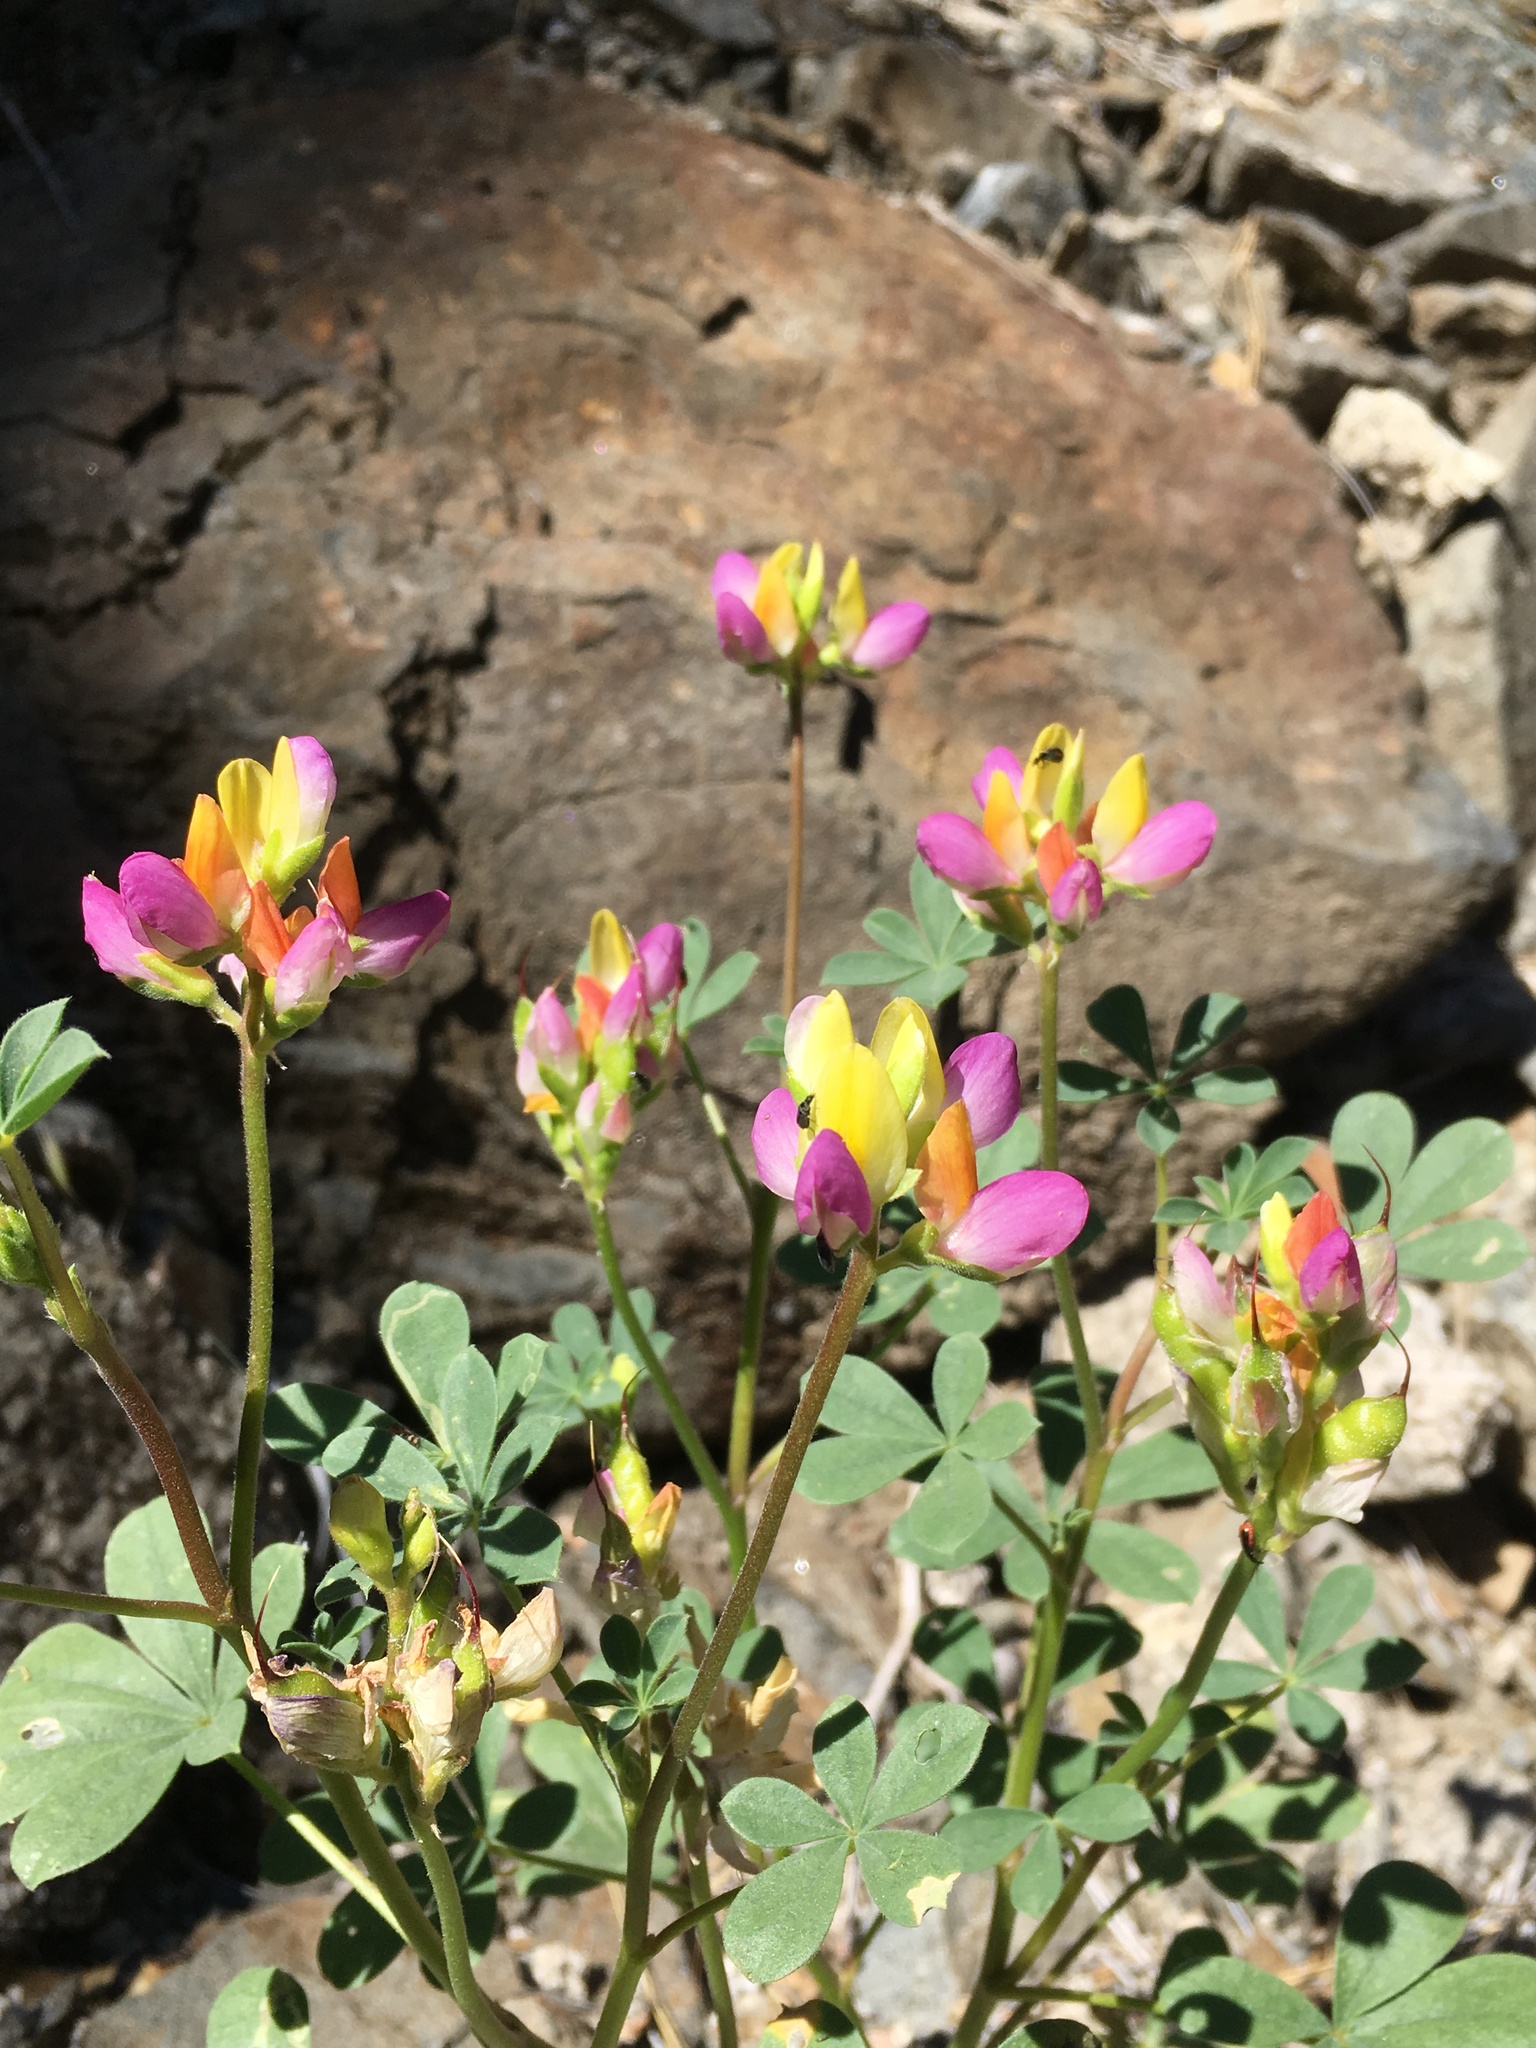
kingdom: Plantae
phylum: Tracheophyta
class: Magnoliopsida
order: Fabales
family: Fabaceae
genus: Lupinus
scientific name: Lupinus stiversii
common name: Harlequin lupine
